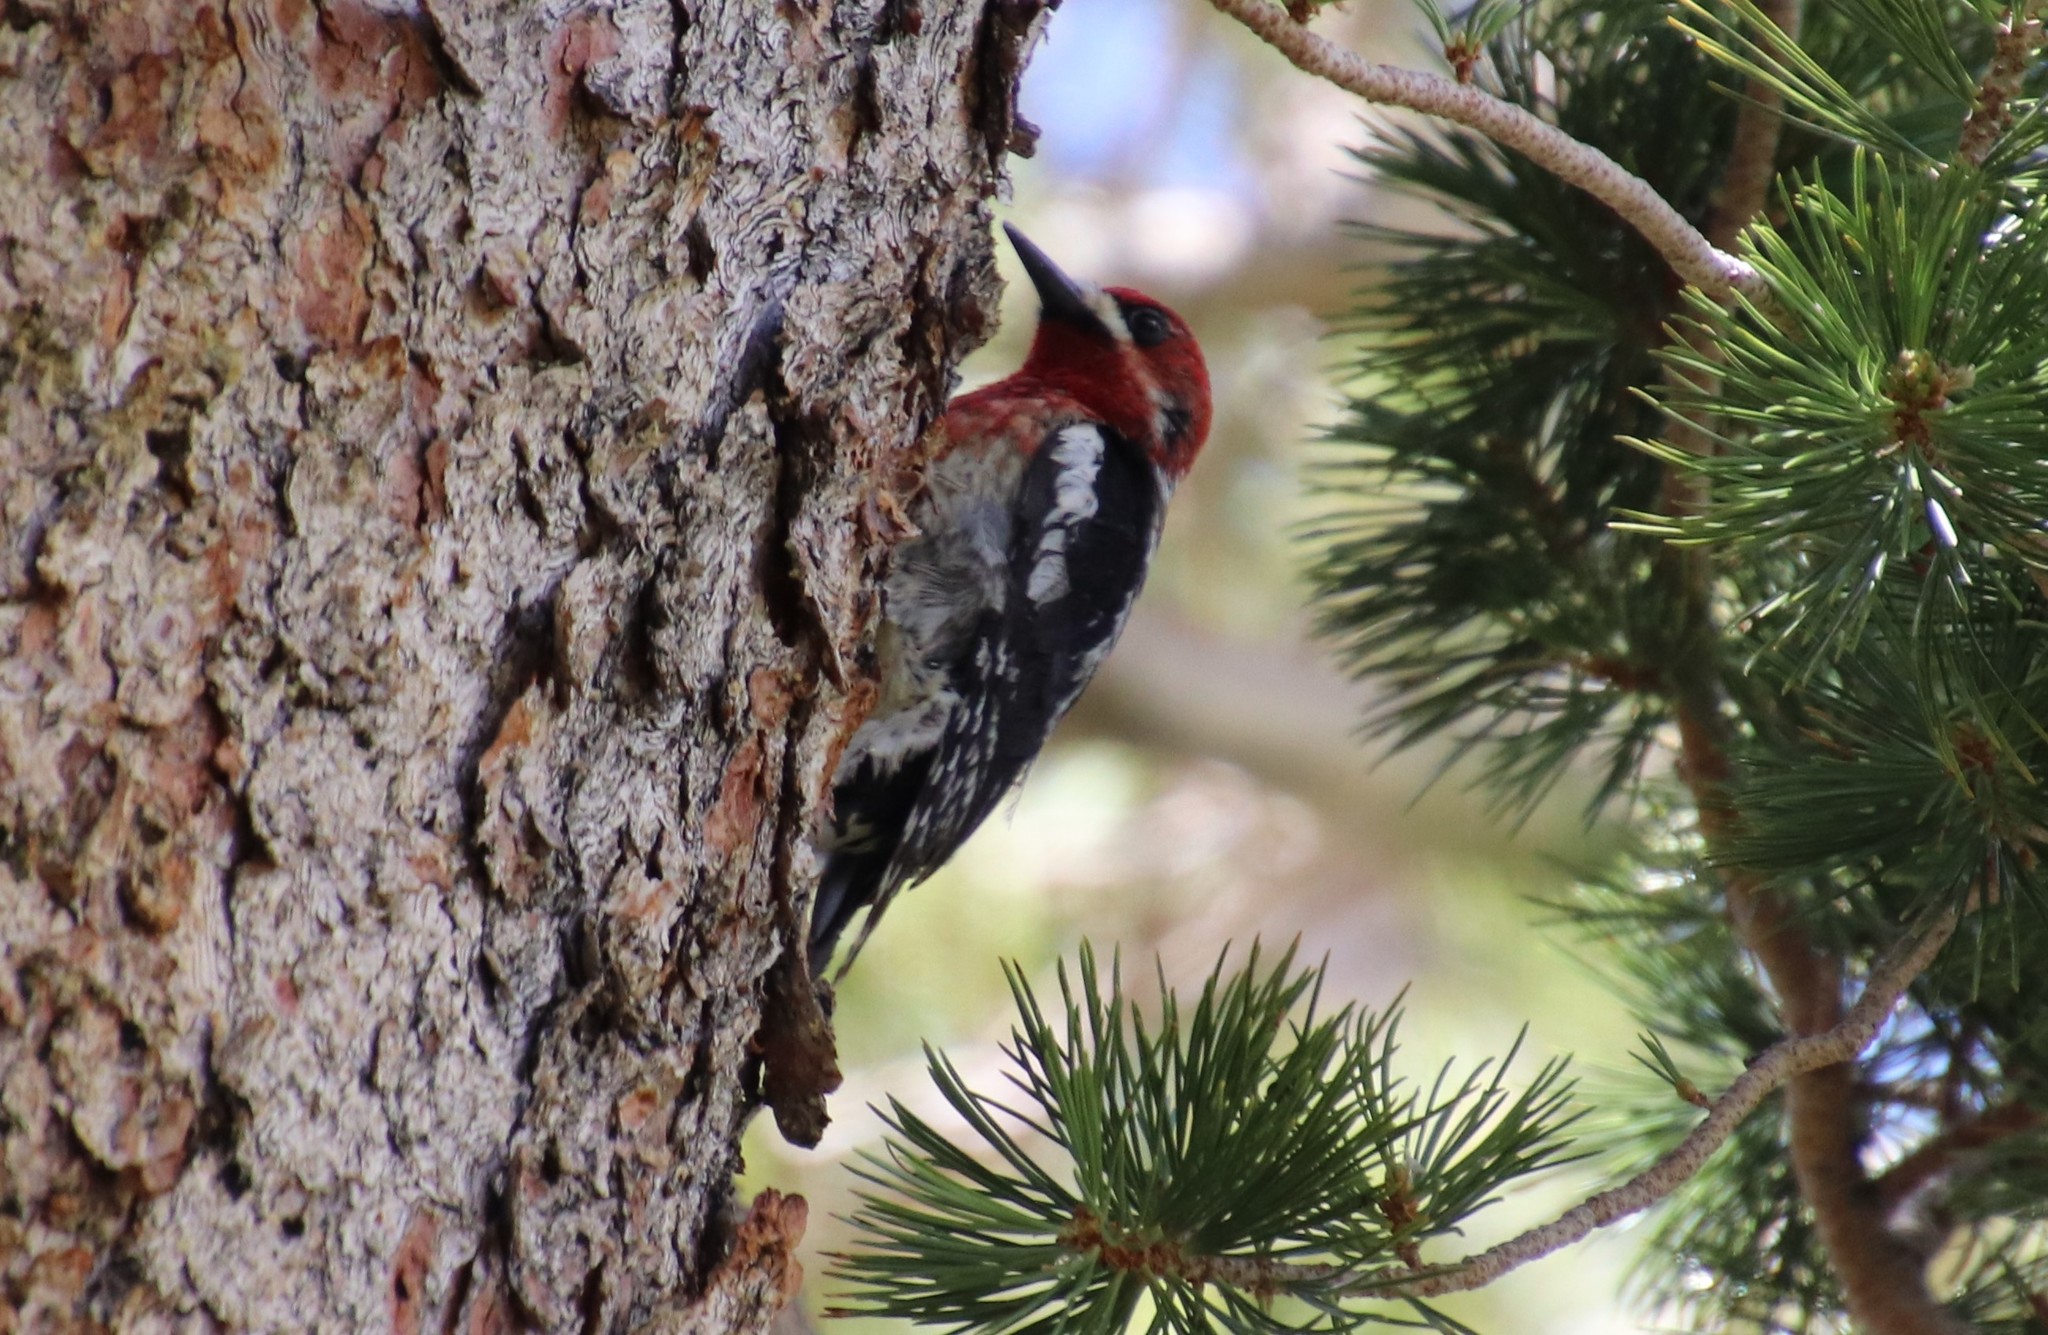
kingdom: Animalia
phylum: Chordata
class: Aves
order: Piciformes
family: Picidae
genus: Sphyrapicus
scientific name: Sphyrapicus ruber
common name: Red-breasted sapsucker
